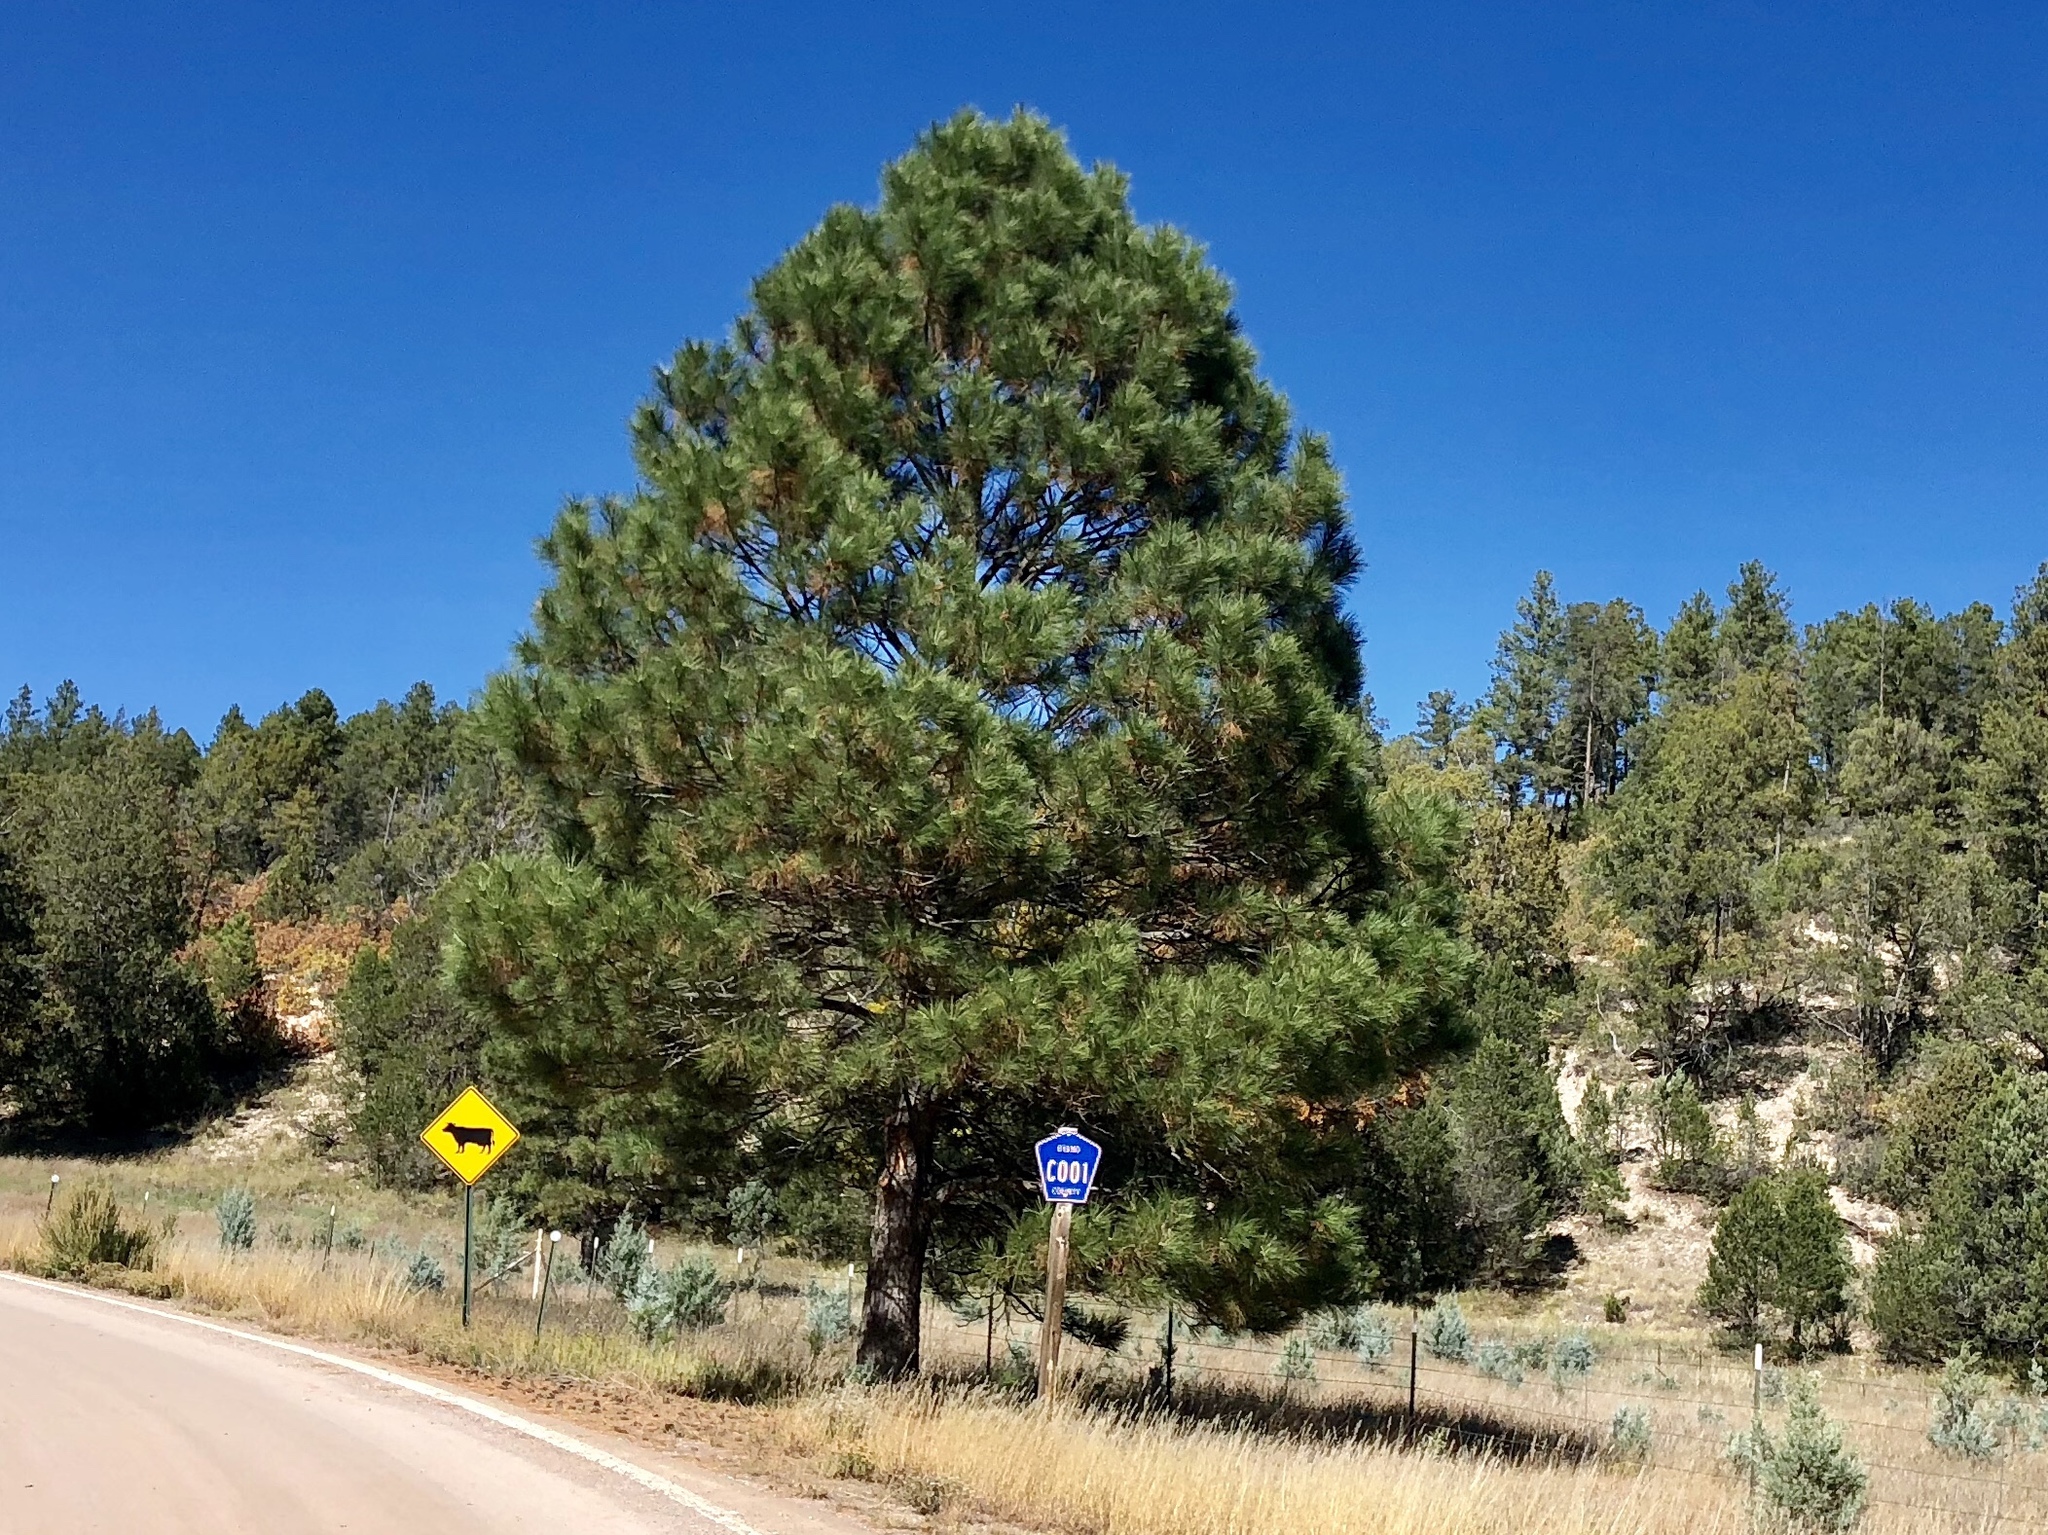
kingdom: Plantae
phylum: Tracheophyta
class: Pinopsida
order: Pinales
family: Pinaceae
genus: Pinus
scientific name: Pinus ponderosa
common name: Western yellow-pine
